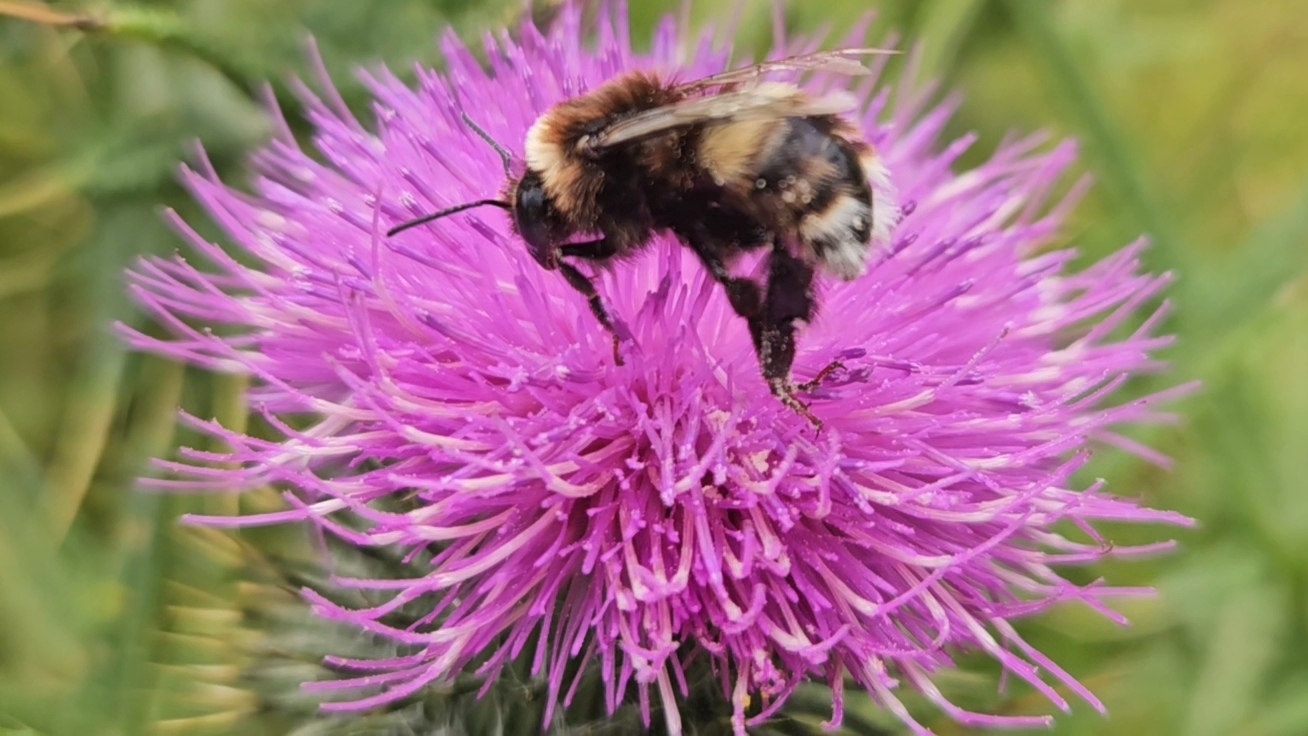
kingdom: Animalia
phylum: Arthropoda
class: Insecta
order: Hymenoptera
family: Apidae
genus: Bombus
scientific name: Bombus terrestris
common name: Buff-tailed bumblebee
